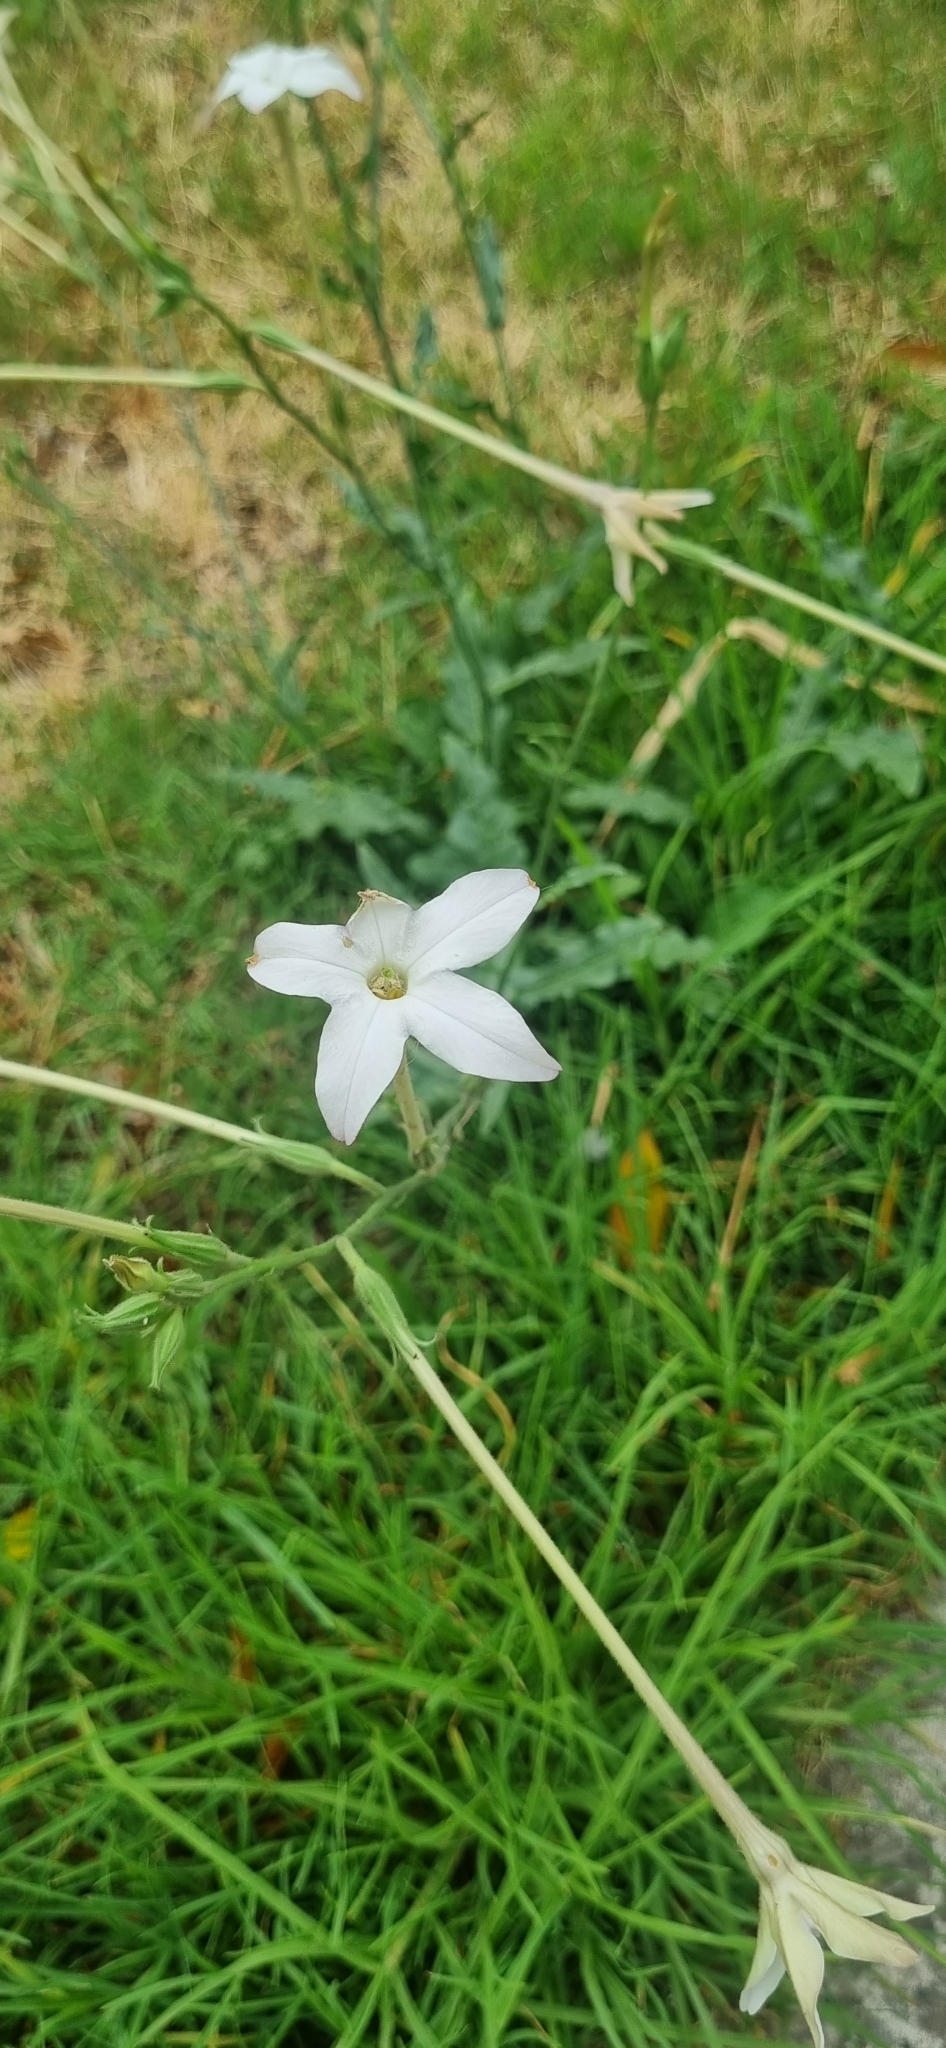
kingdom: Plantae
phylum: Tracheophyta
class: Magnoliopsida
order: Solanales
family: Solanaceae
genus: Nicotiana
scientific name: Nicotiana longiflora
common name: Long-flowered tobacco
